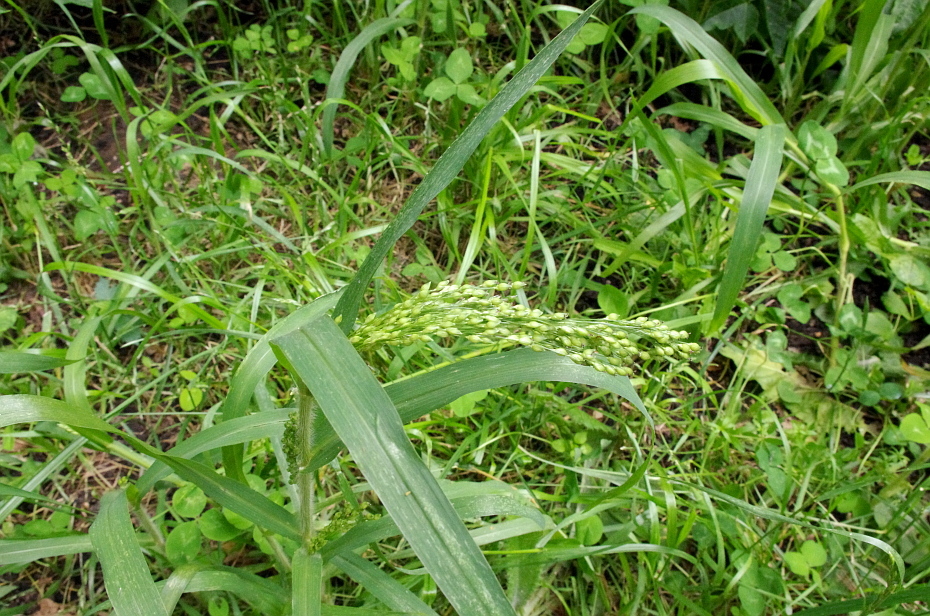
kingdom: Plantae
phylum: Tracheophyta
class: Liliopsida
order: Poales
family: Poaceae
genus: Panicum
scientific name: Panicum miliaceum
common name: Common millet
